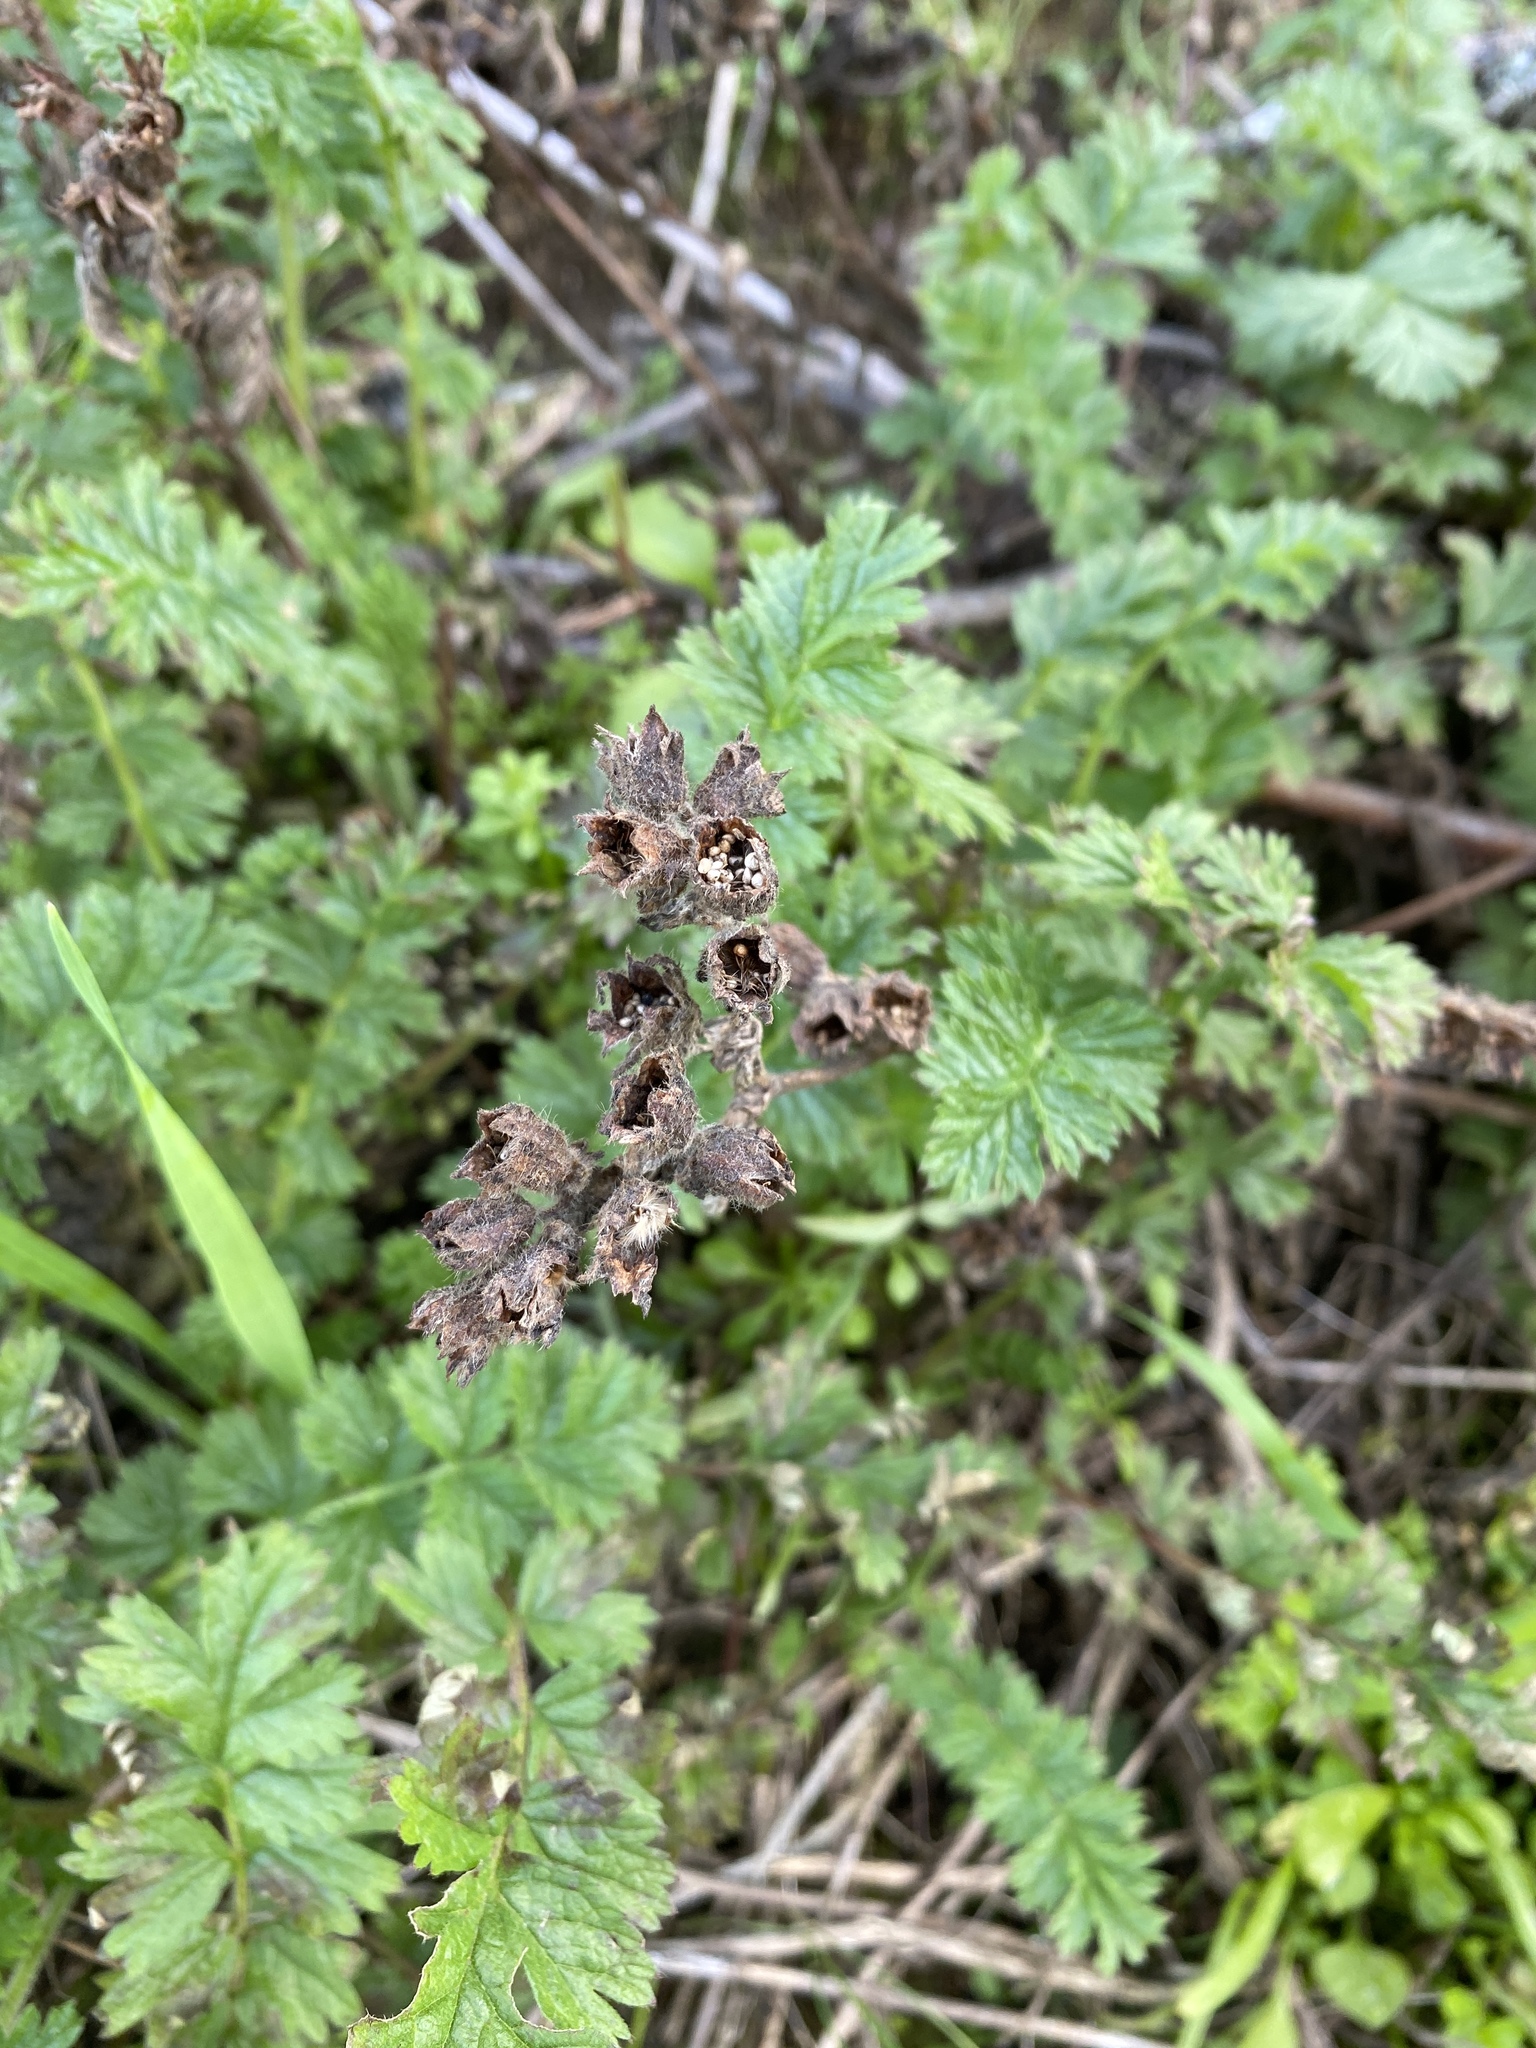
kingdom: Plantae
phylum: Tracheophyta
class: Magnoliopsida
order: Rosales
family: Rosaceae
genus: Potentilla
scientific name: Potentilla californica
